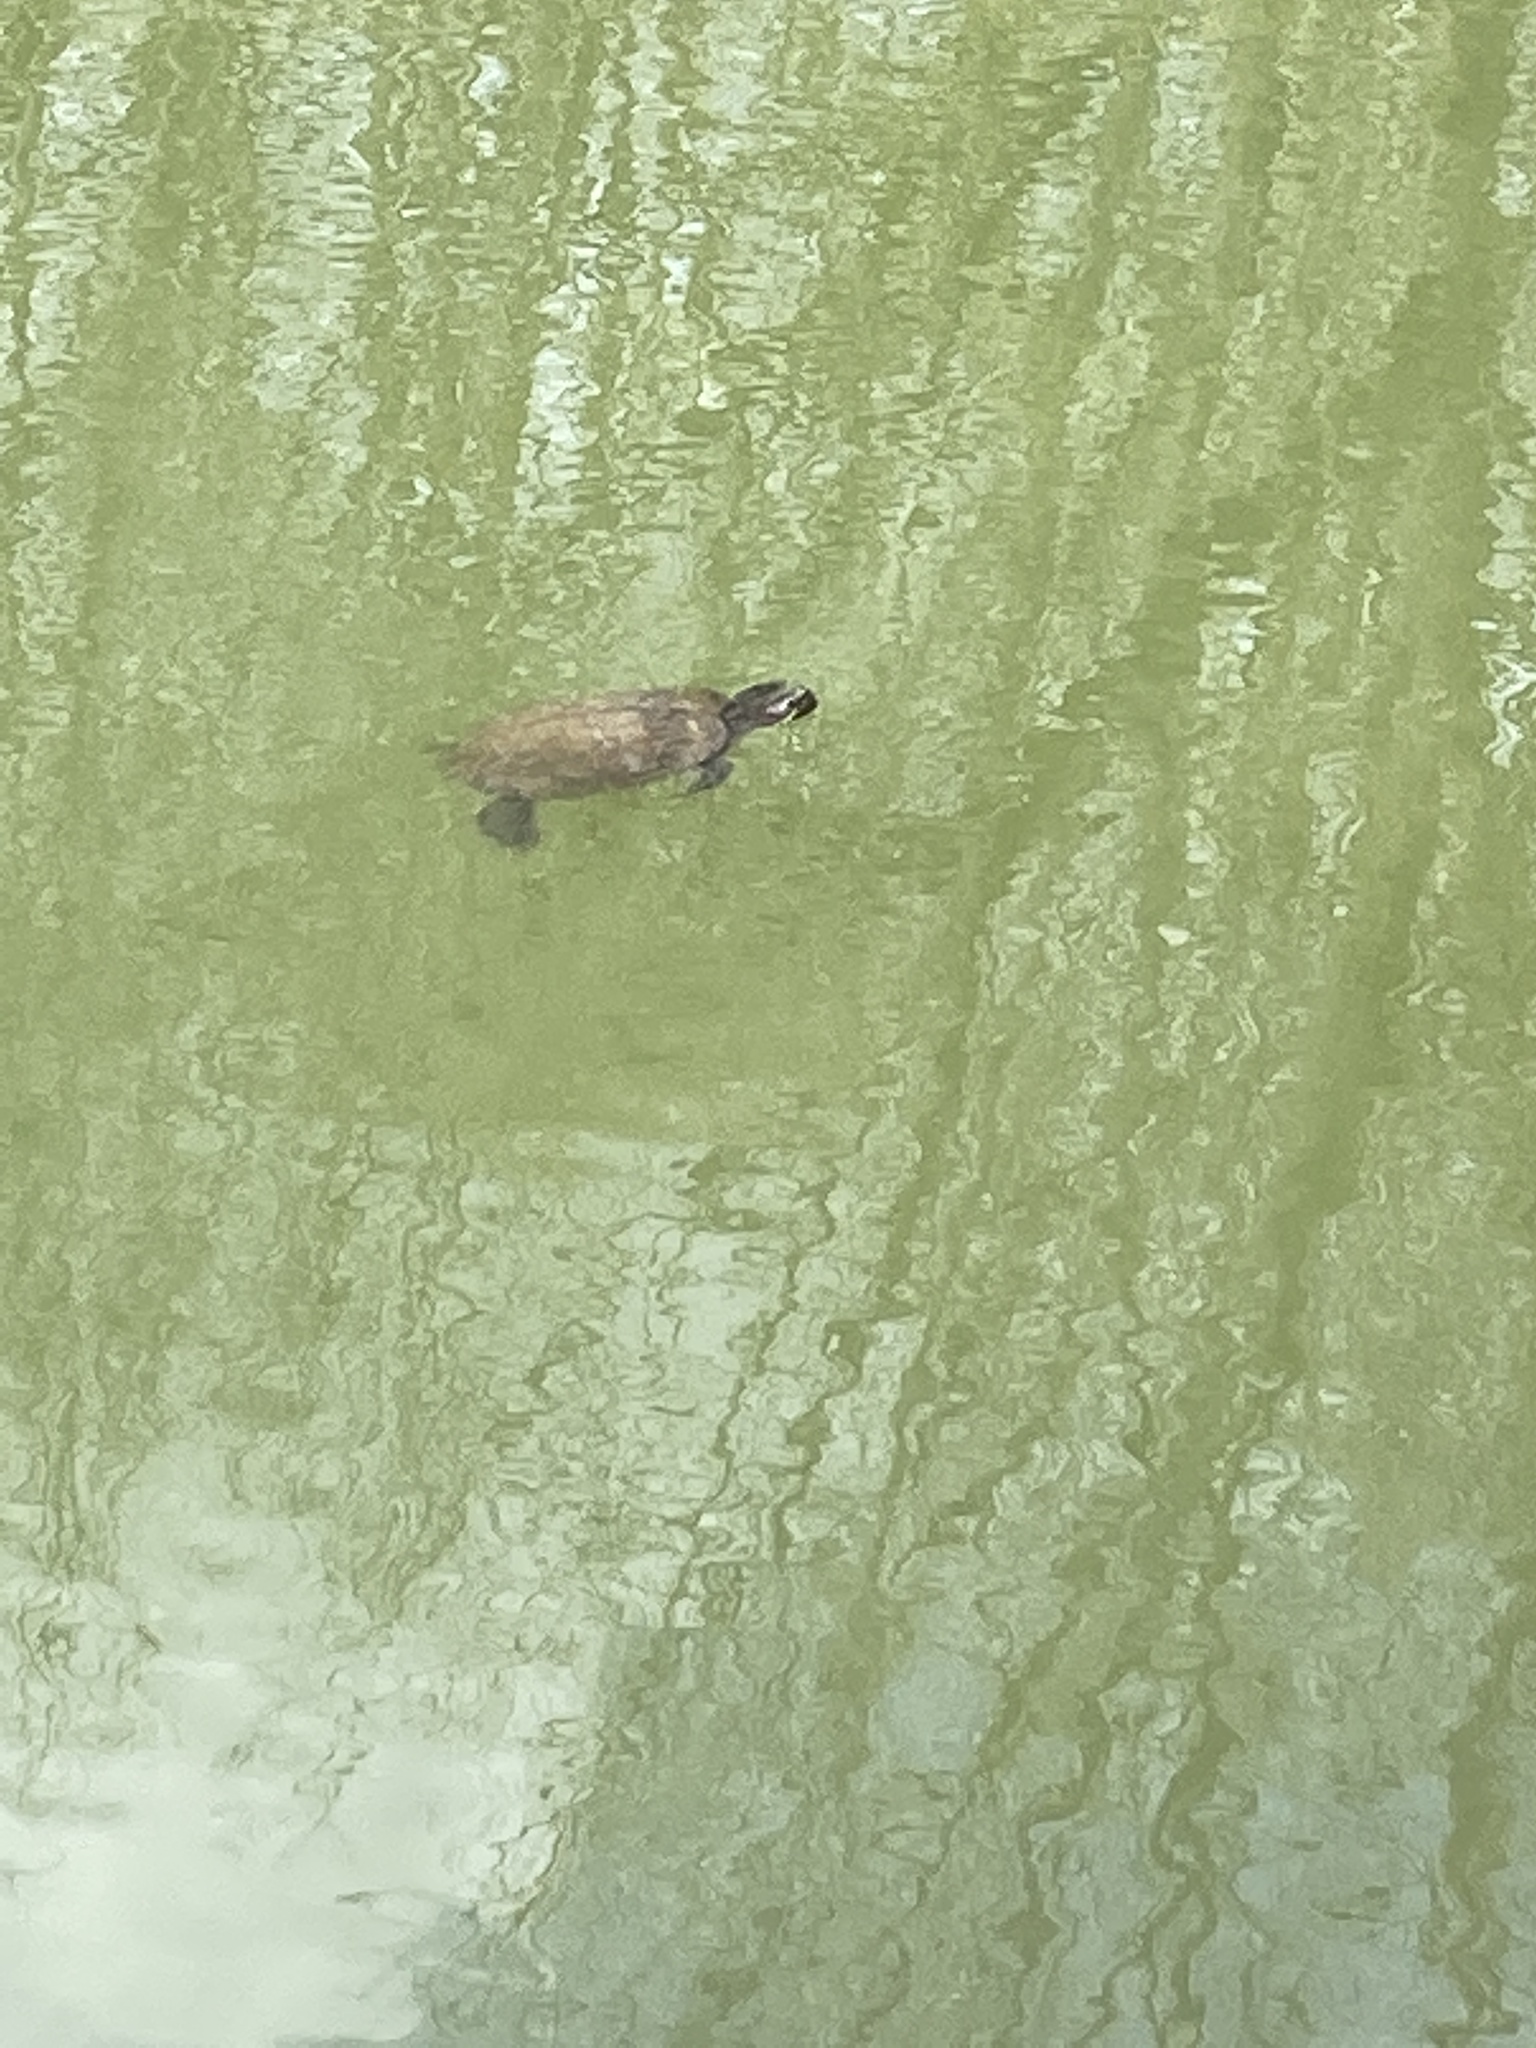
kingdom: Animalia
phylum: Chordata
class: Testudines
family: Emydidae
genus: Trachemys
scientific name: Trachemys scripta
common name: Slider
